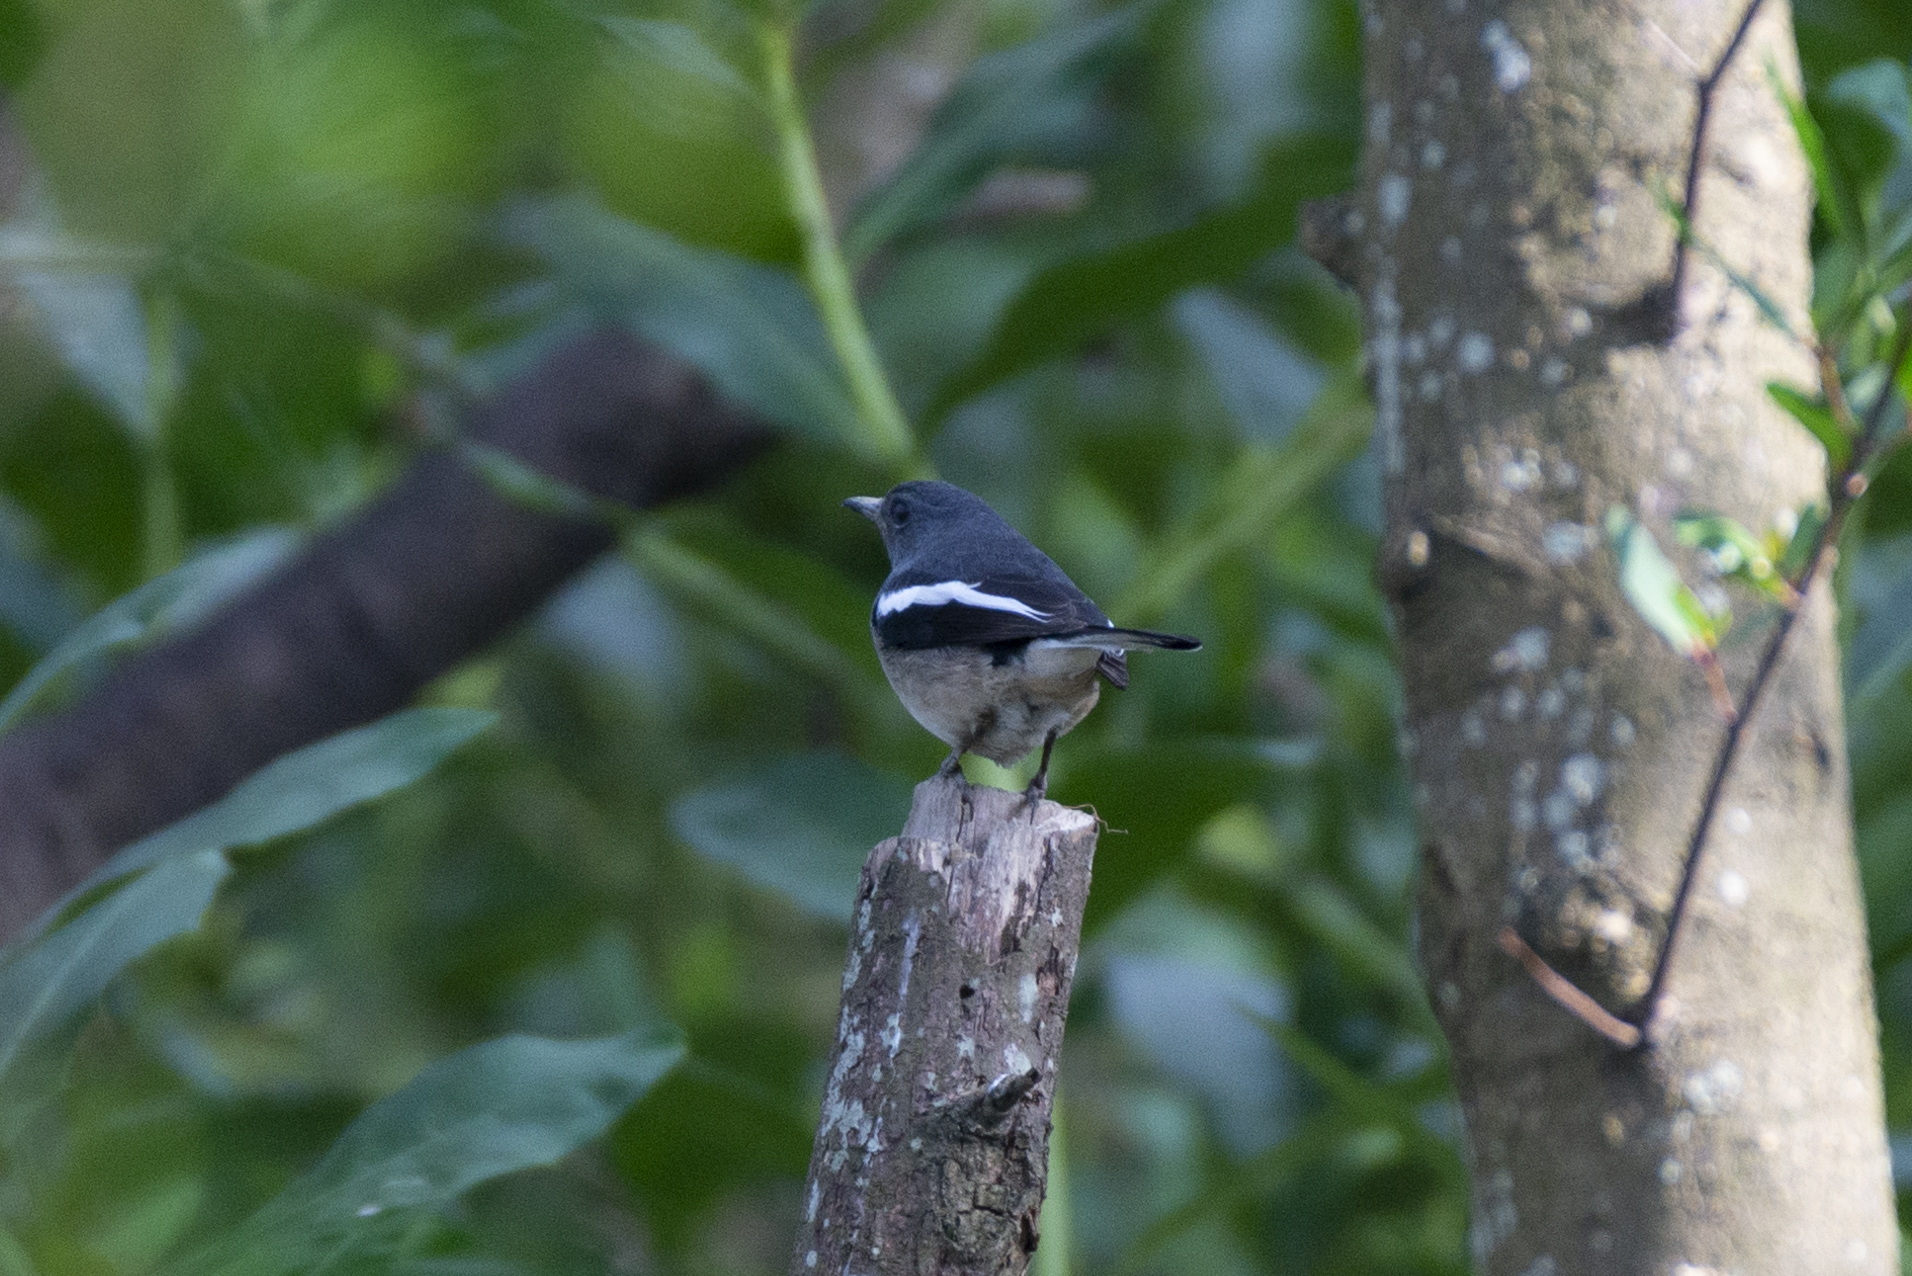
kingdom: Animalia
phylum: Chordata
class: Aves
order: Passeriformes
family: Muscicapidae
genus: Copsychus
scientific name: Copsychus saularis
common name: Oriental magpie-robin
